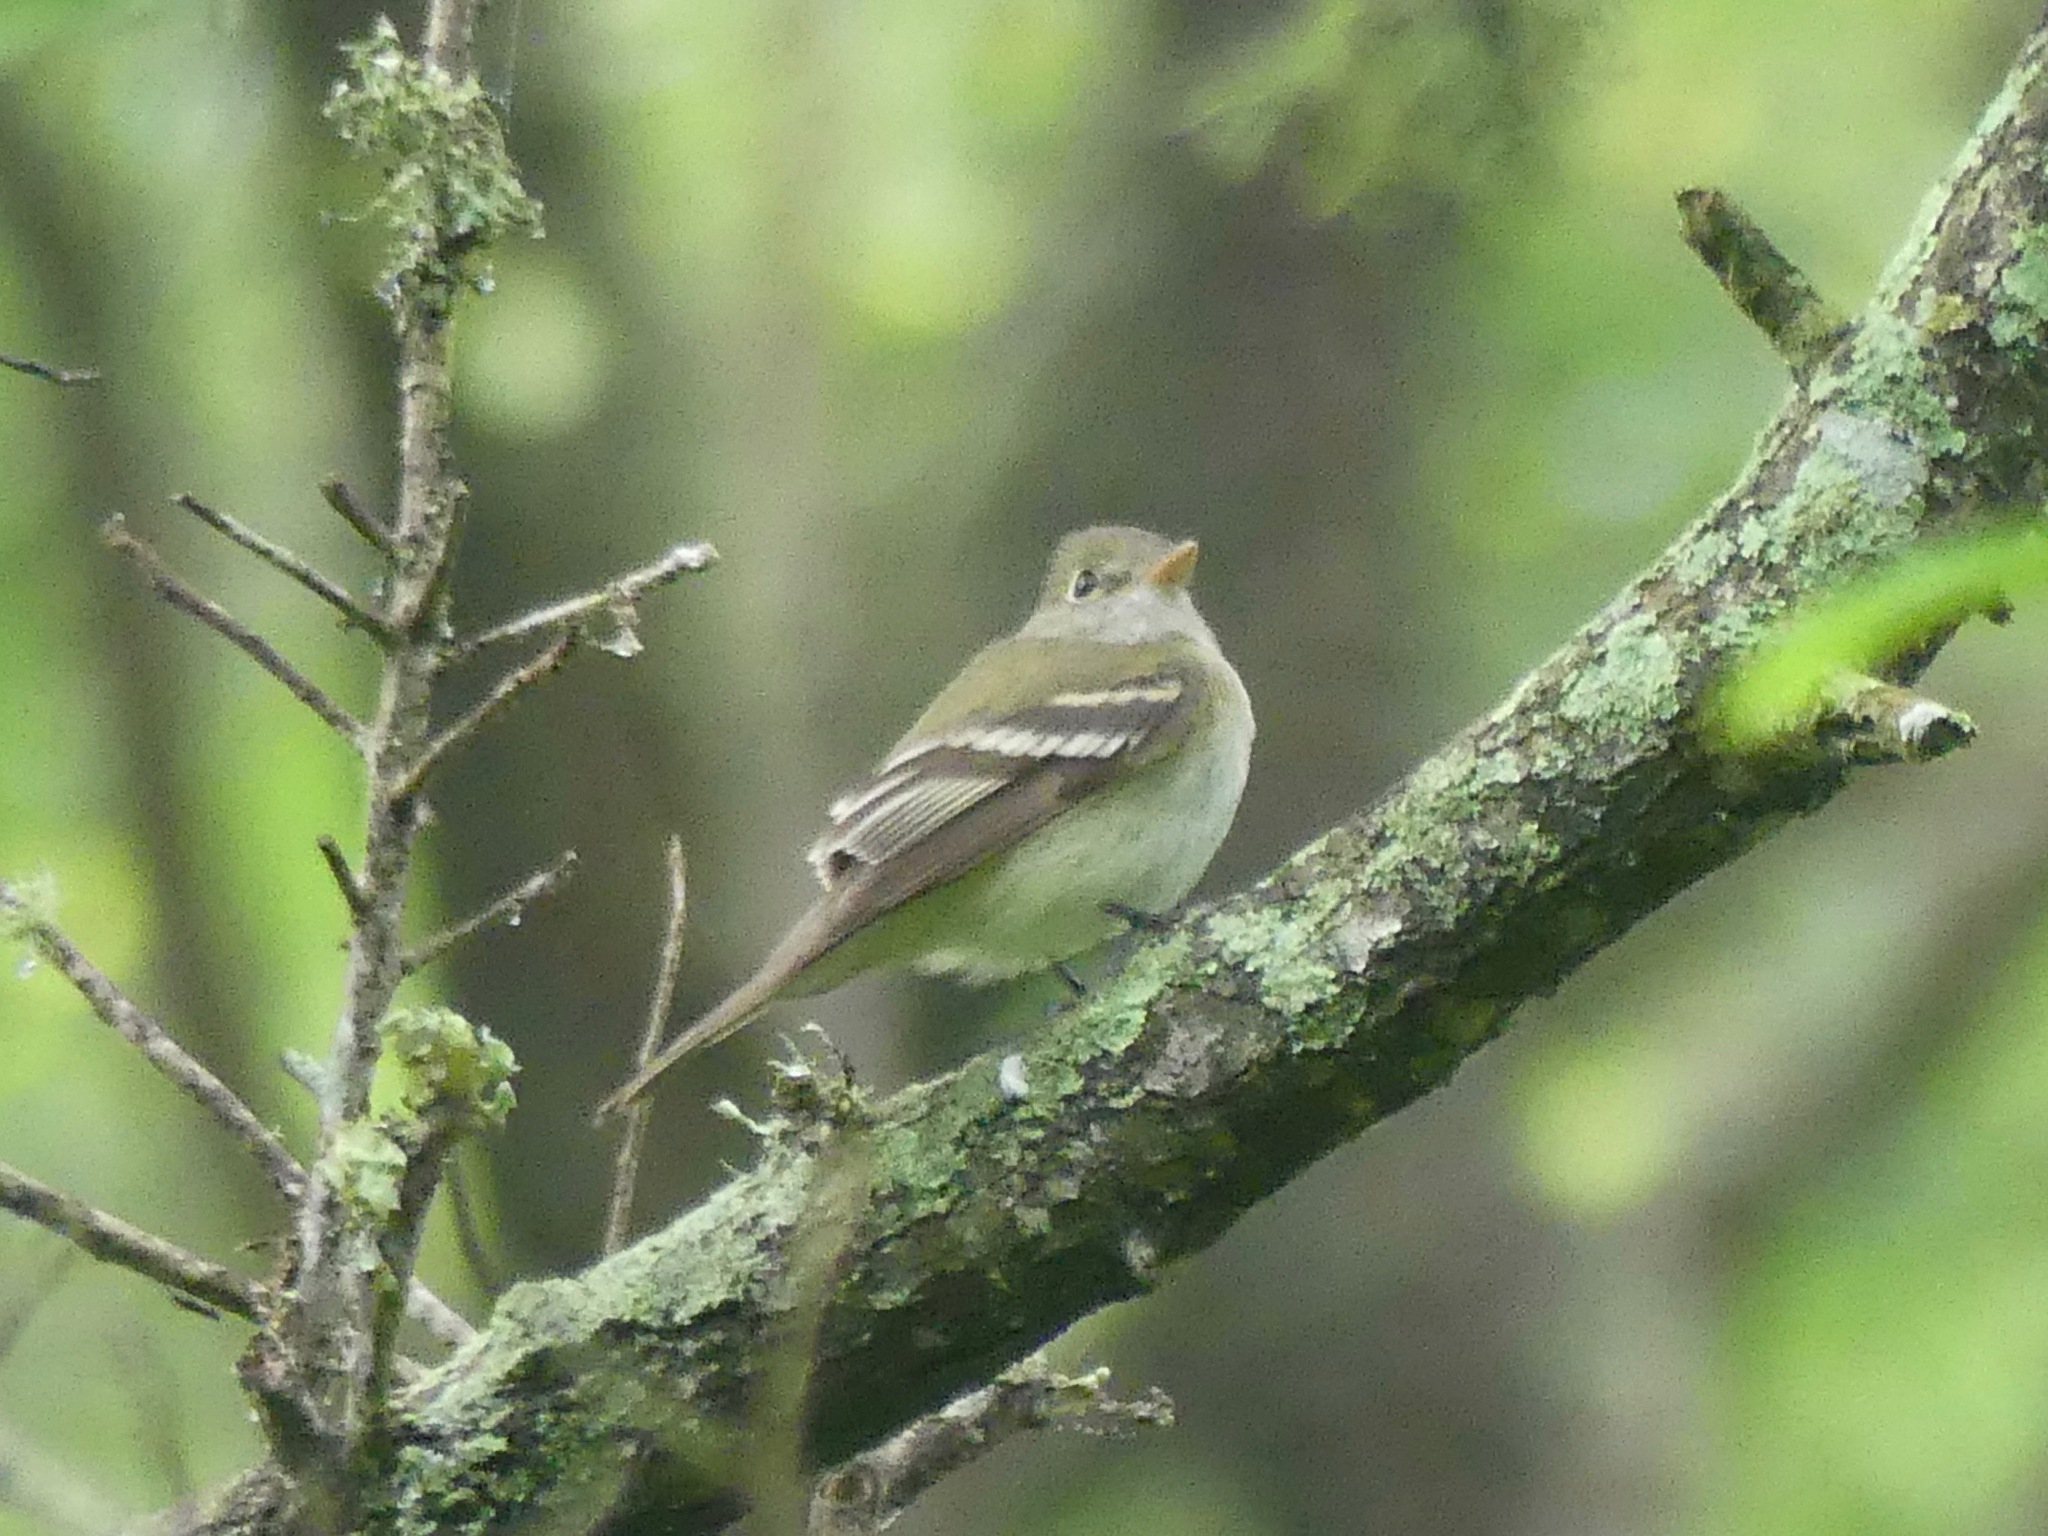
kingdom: Animalia
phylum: Chordata
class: Aves
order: Passeriformes
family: Tyrannidae
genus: Empidonax
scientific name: Empidonax virescens
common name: Acadian flycatcher
